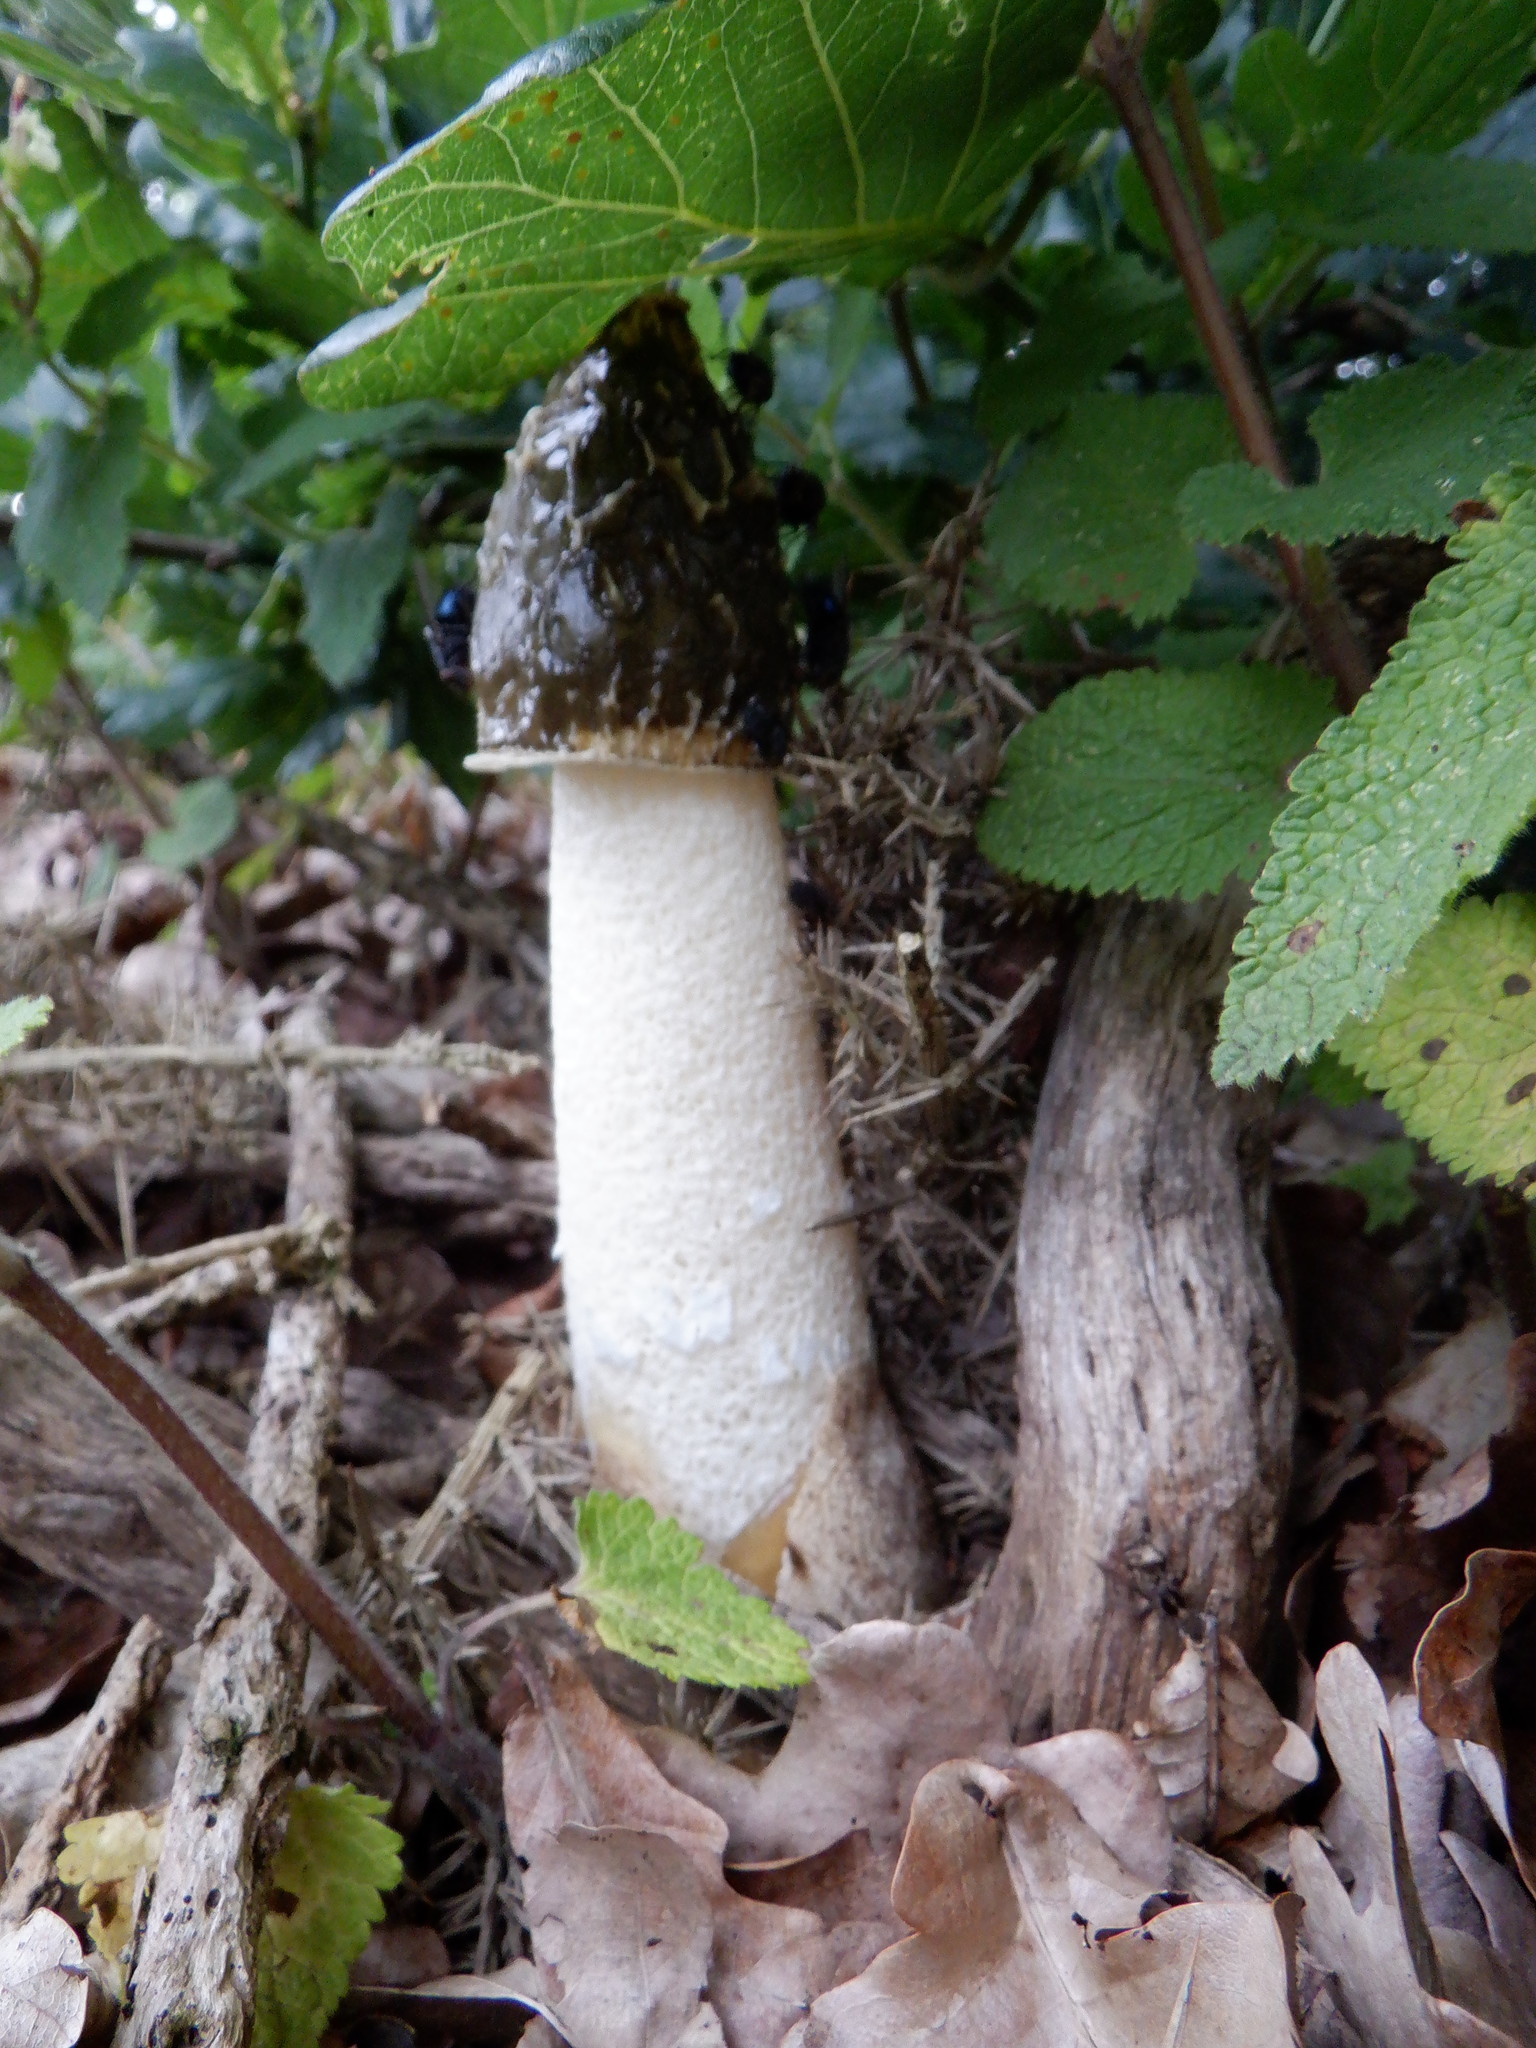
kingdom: Fungi
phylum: Basidiomycota
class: Agaricomycetes
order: Phallales
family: Phallaceae
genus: Phallus
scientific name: Phallus impudicus
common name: Common stinkhorn
